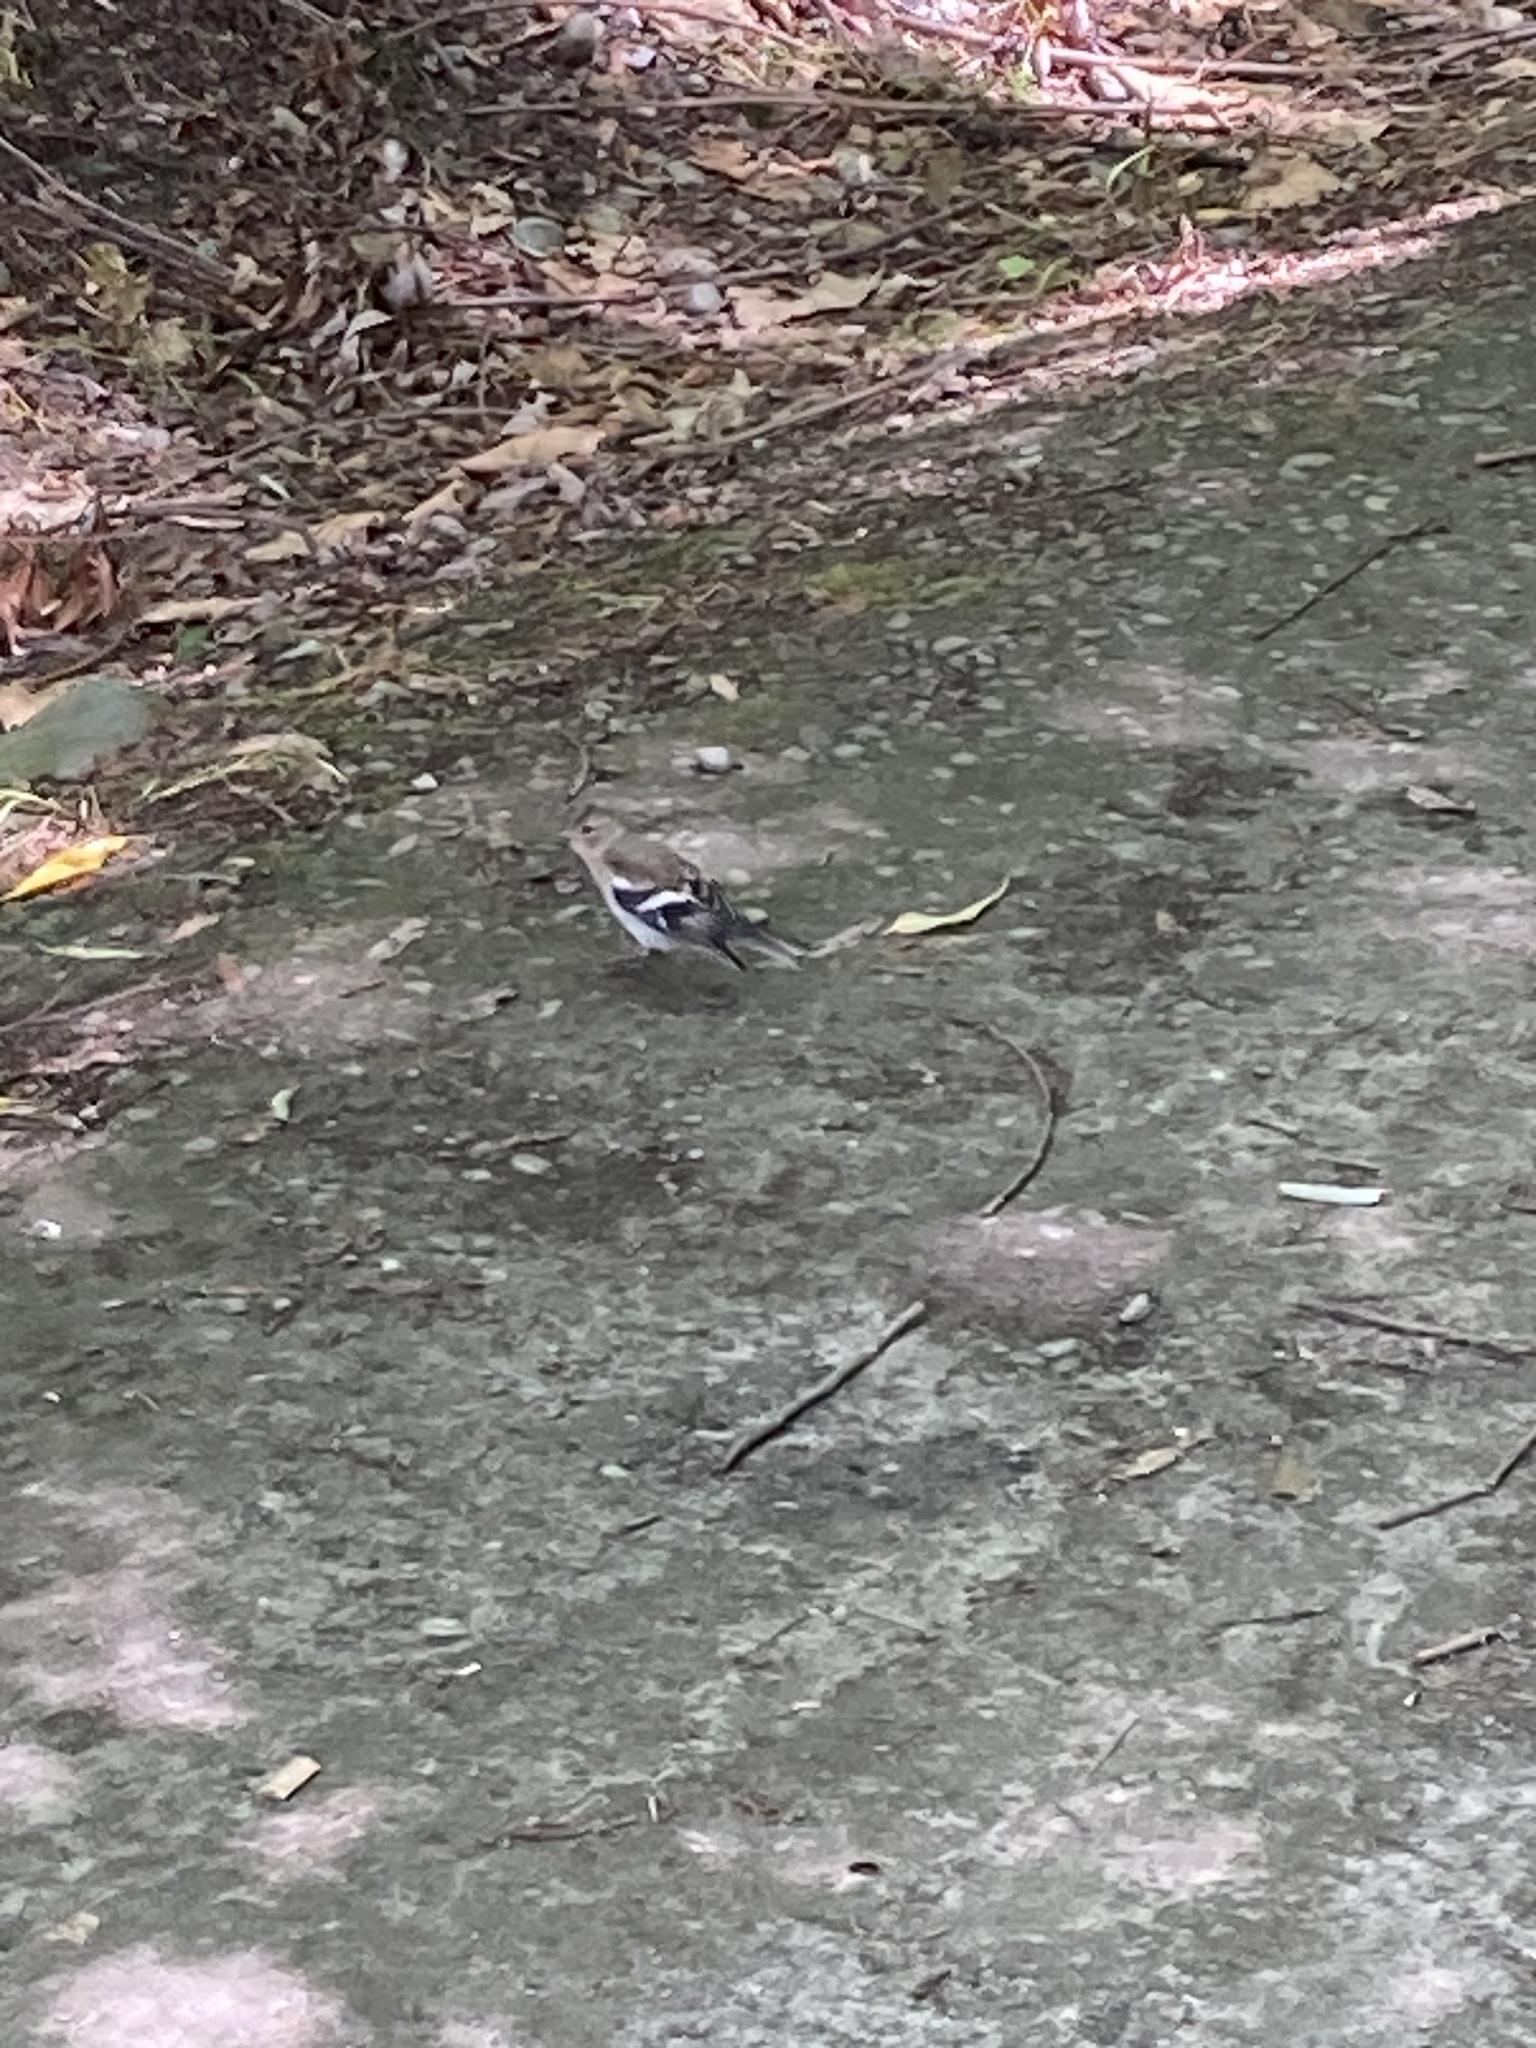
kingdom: Animalia
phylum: Chordata
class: Aves
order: Passeriformes
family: Fringillidae
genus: Fringilla
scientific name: Fringilla coelebs
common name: Common chaffinch
